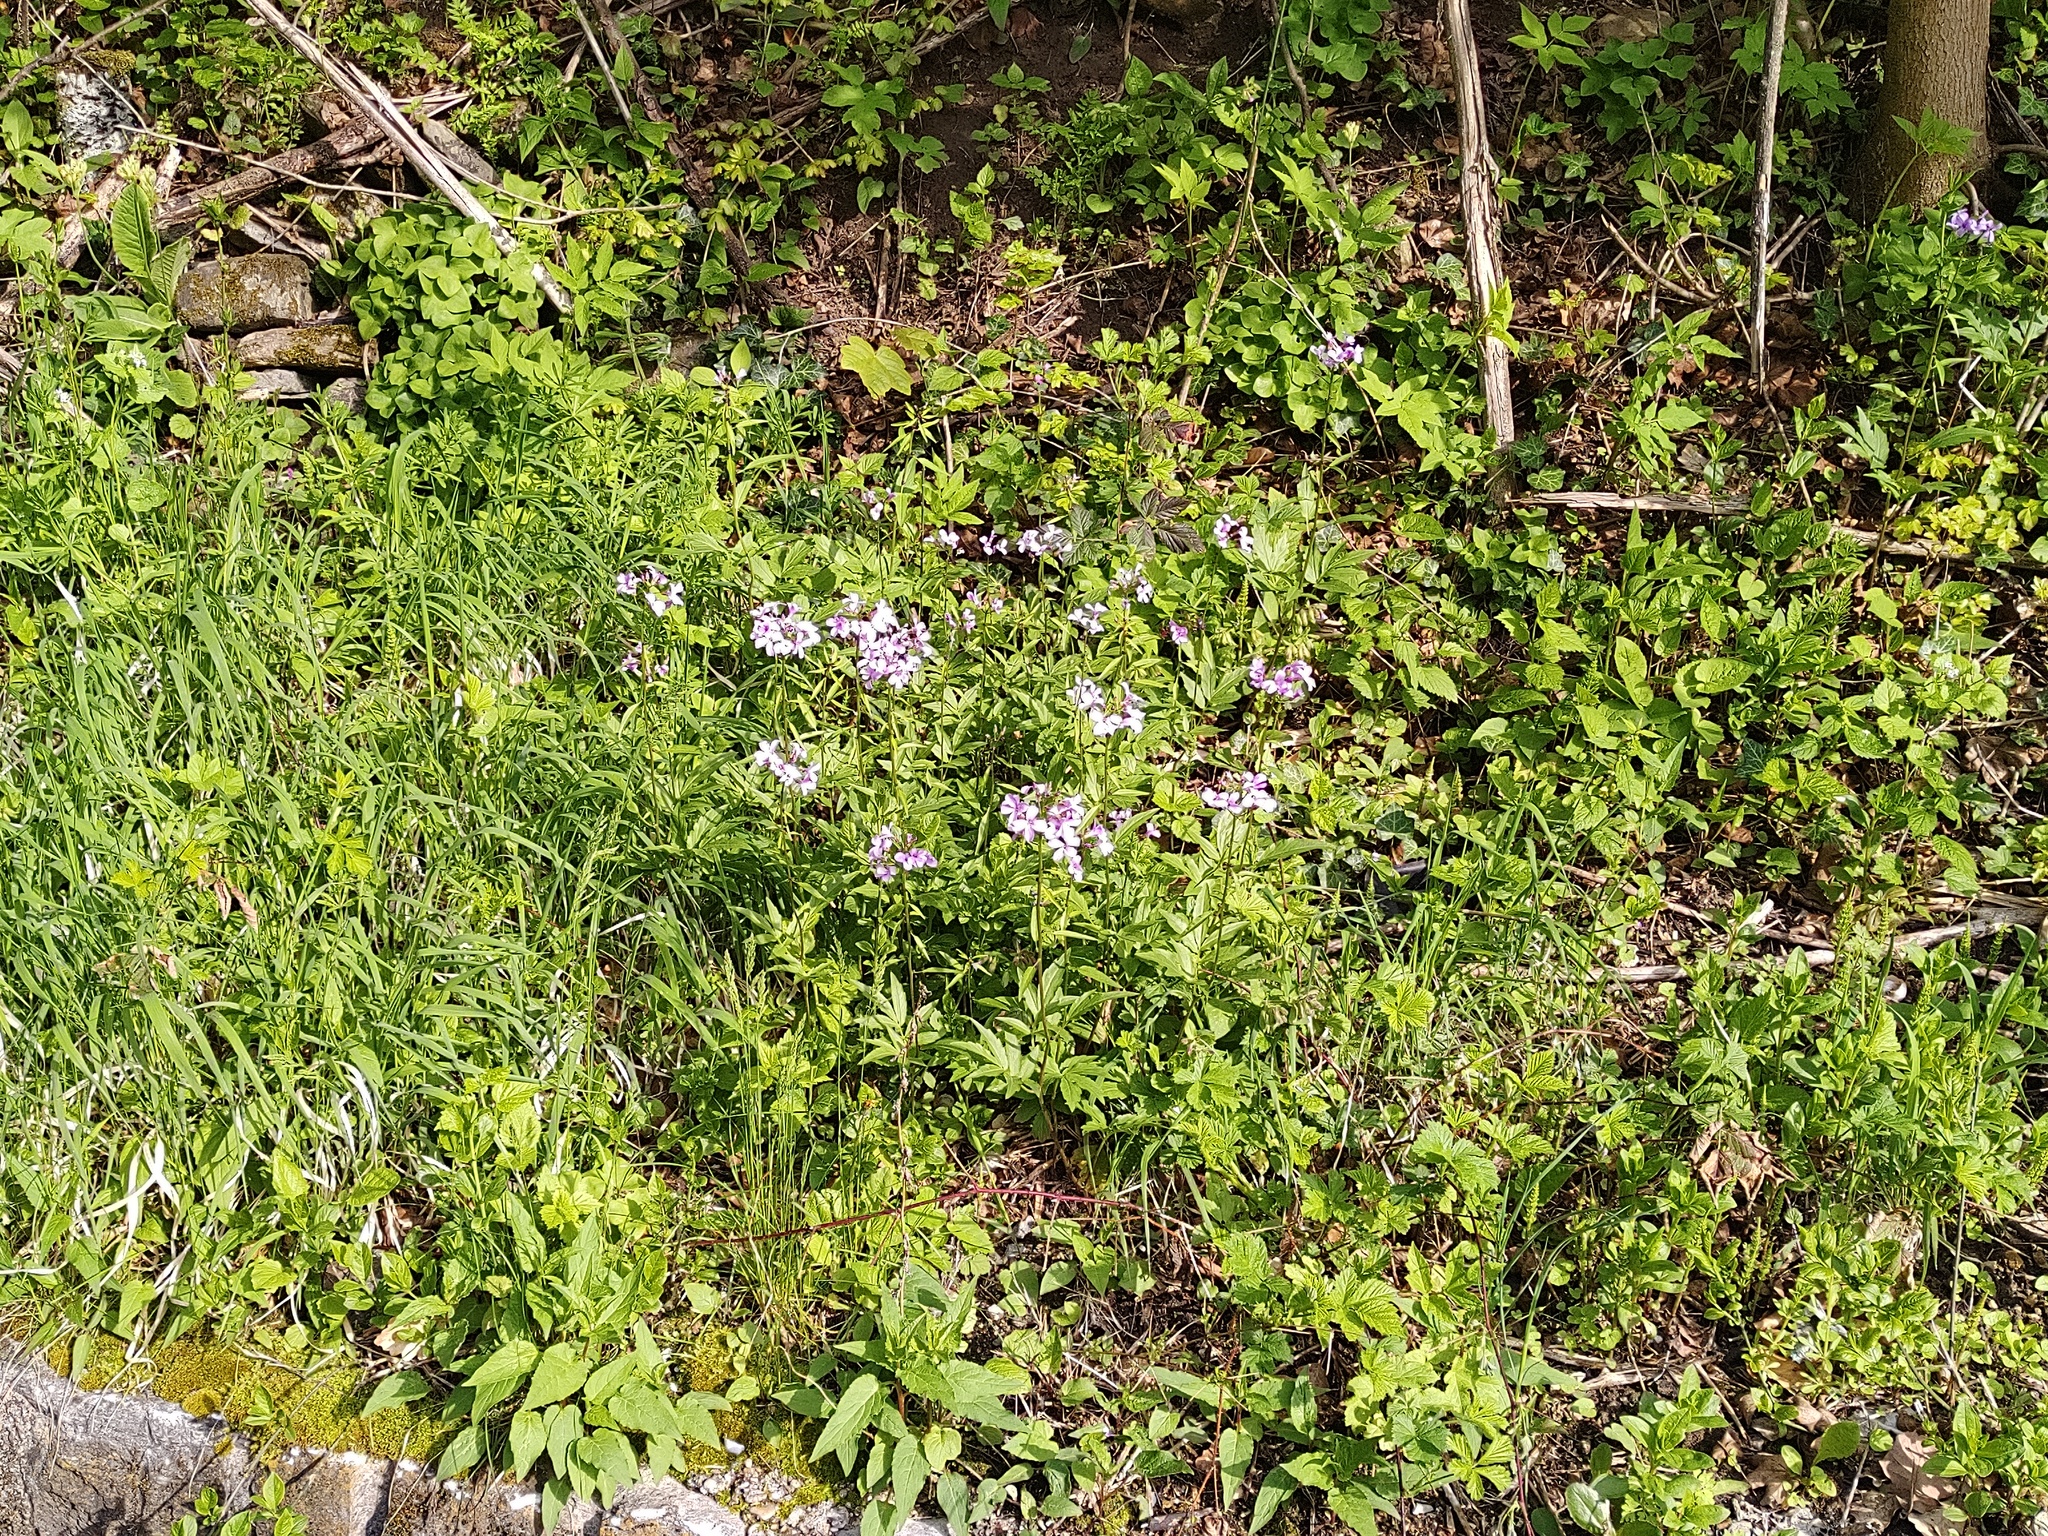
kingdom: Plantae
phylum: Tracheophyta
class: Magnoliopsida
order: Brassicales
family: Brassicaceae
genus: Cardamine
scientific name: Cardamine bulbifera
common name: Coralroot bittercress
